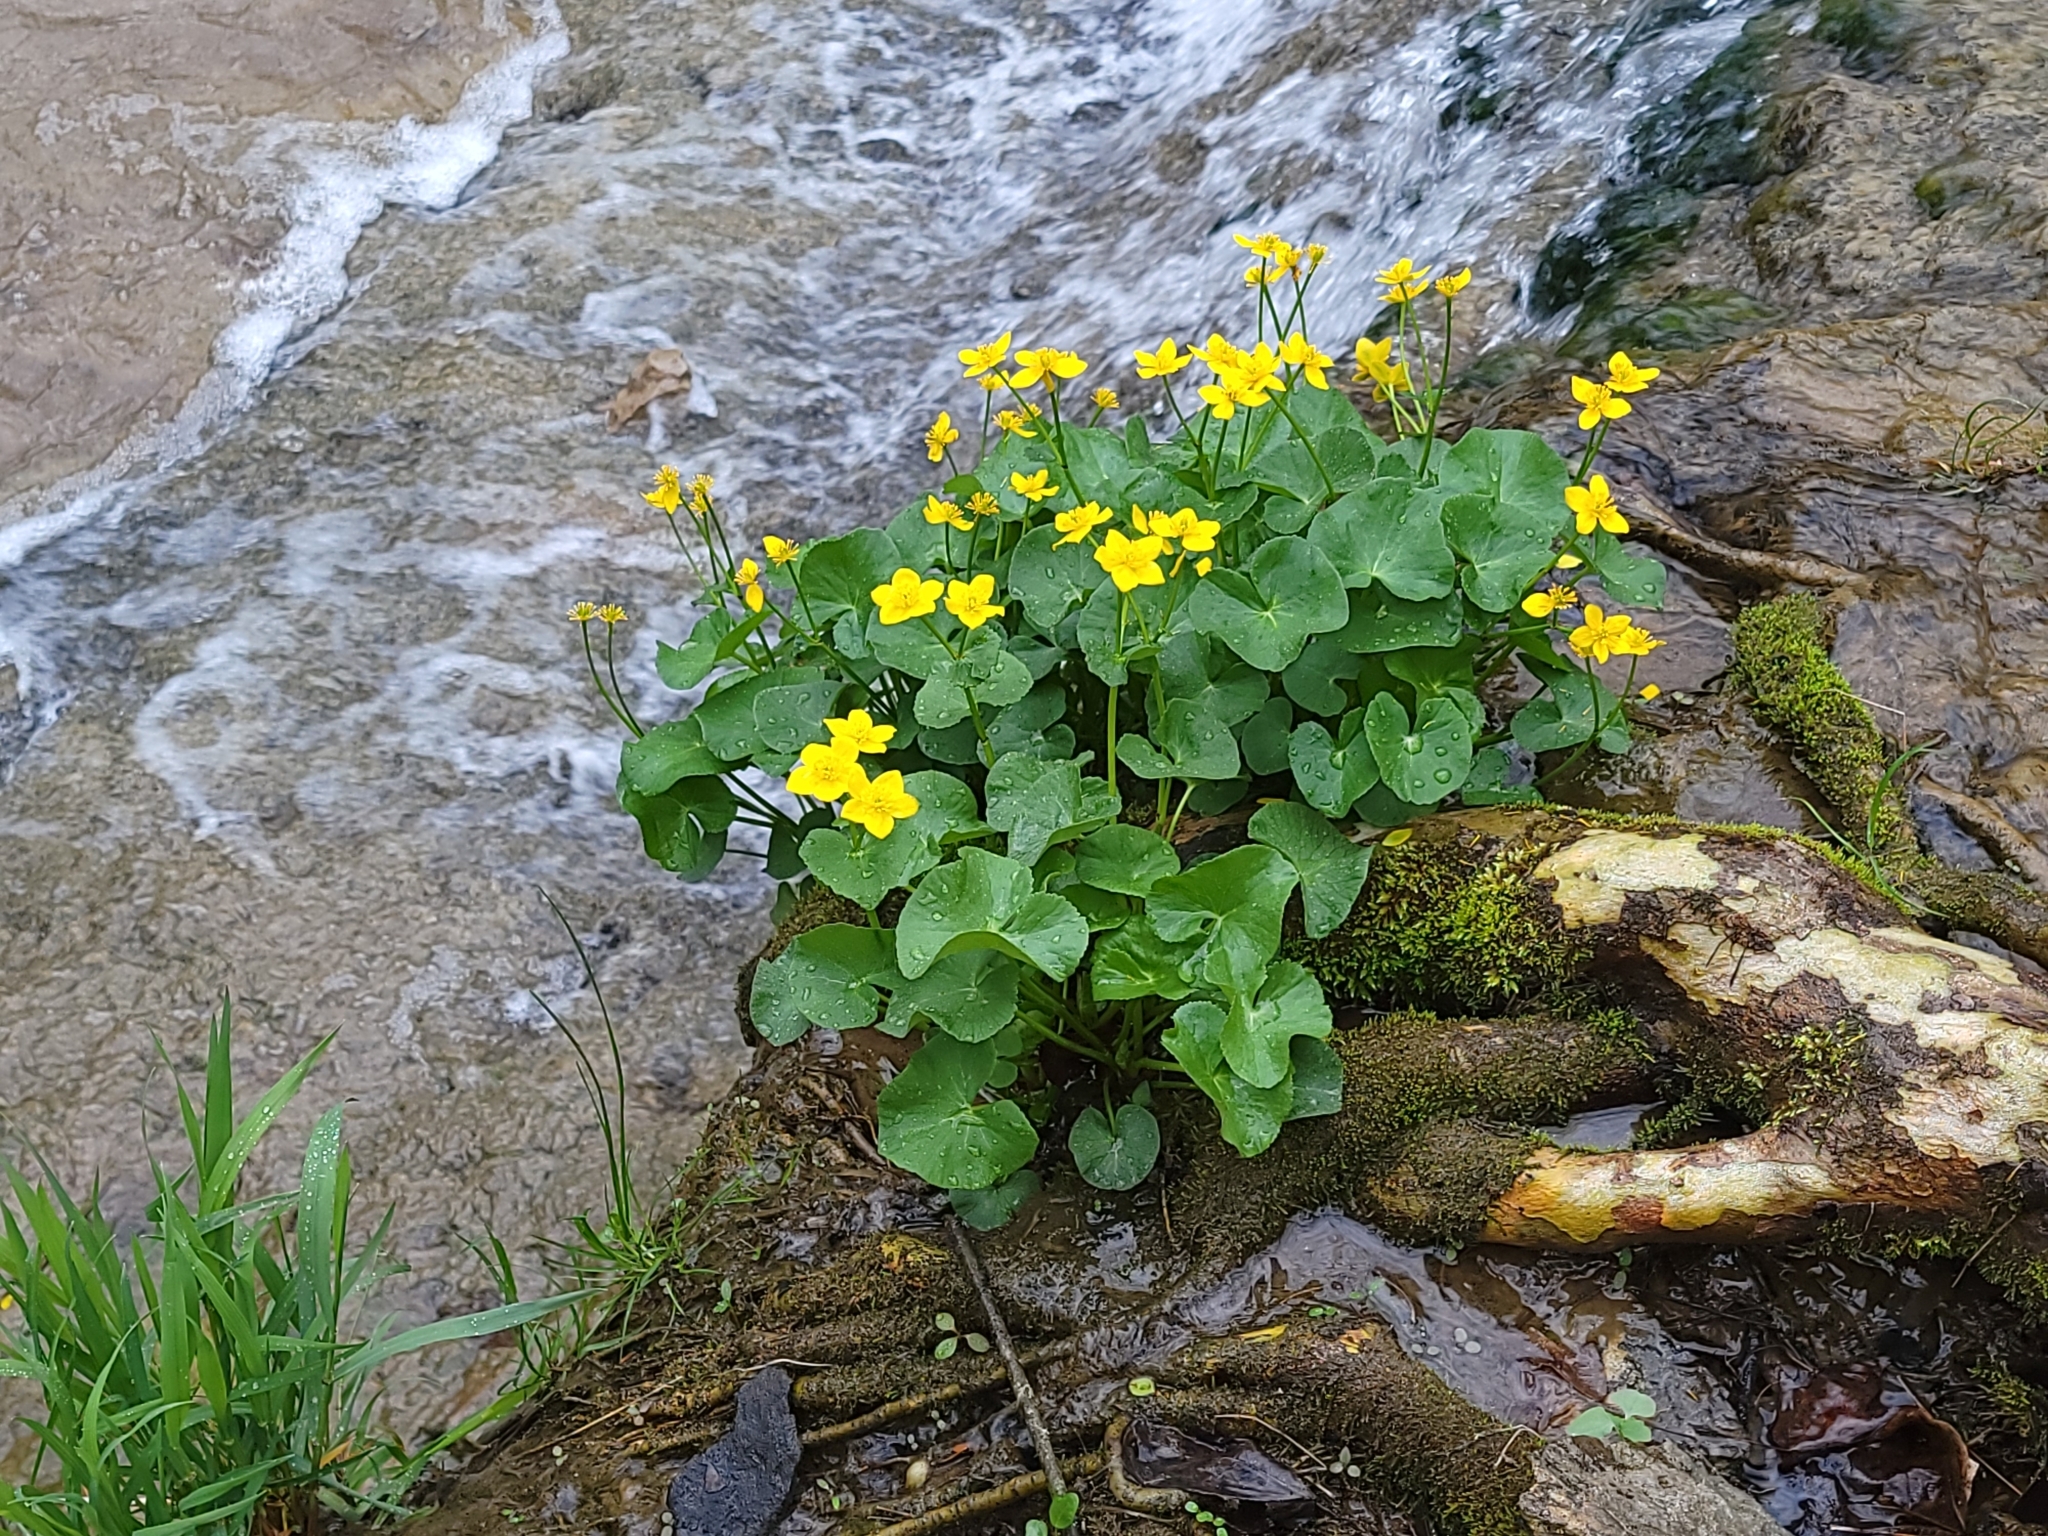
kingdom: Plantae
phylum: Tracheophyta
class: Magnoliopsida
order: Ranunculales
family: Ranunculaceae
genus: Caltha
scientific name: Caltha palustris
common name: Marsh marigold
